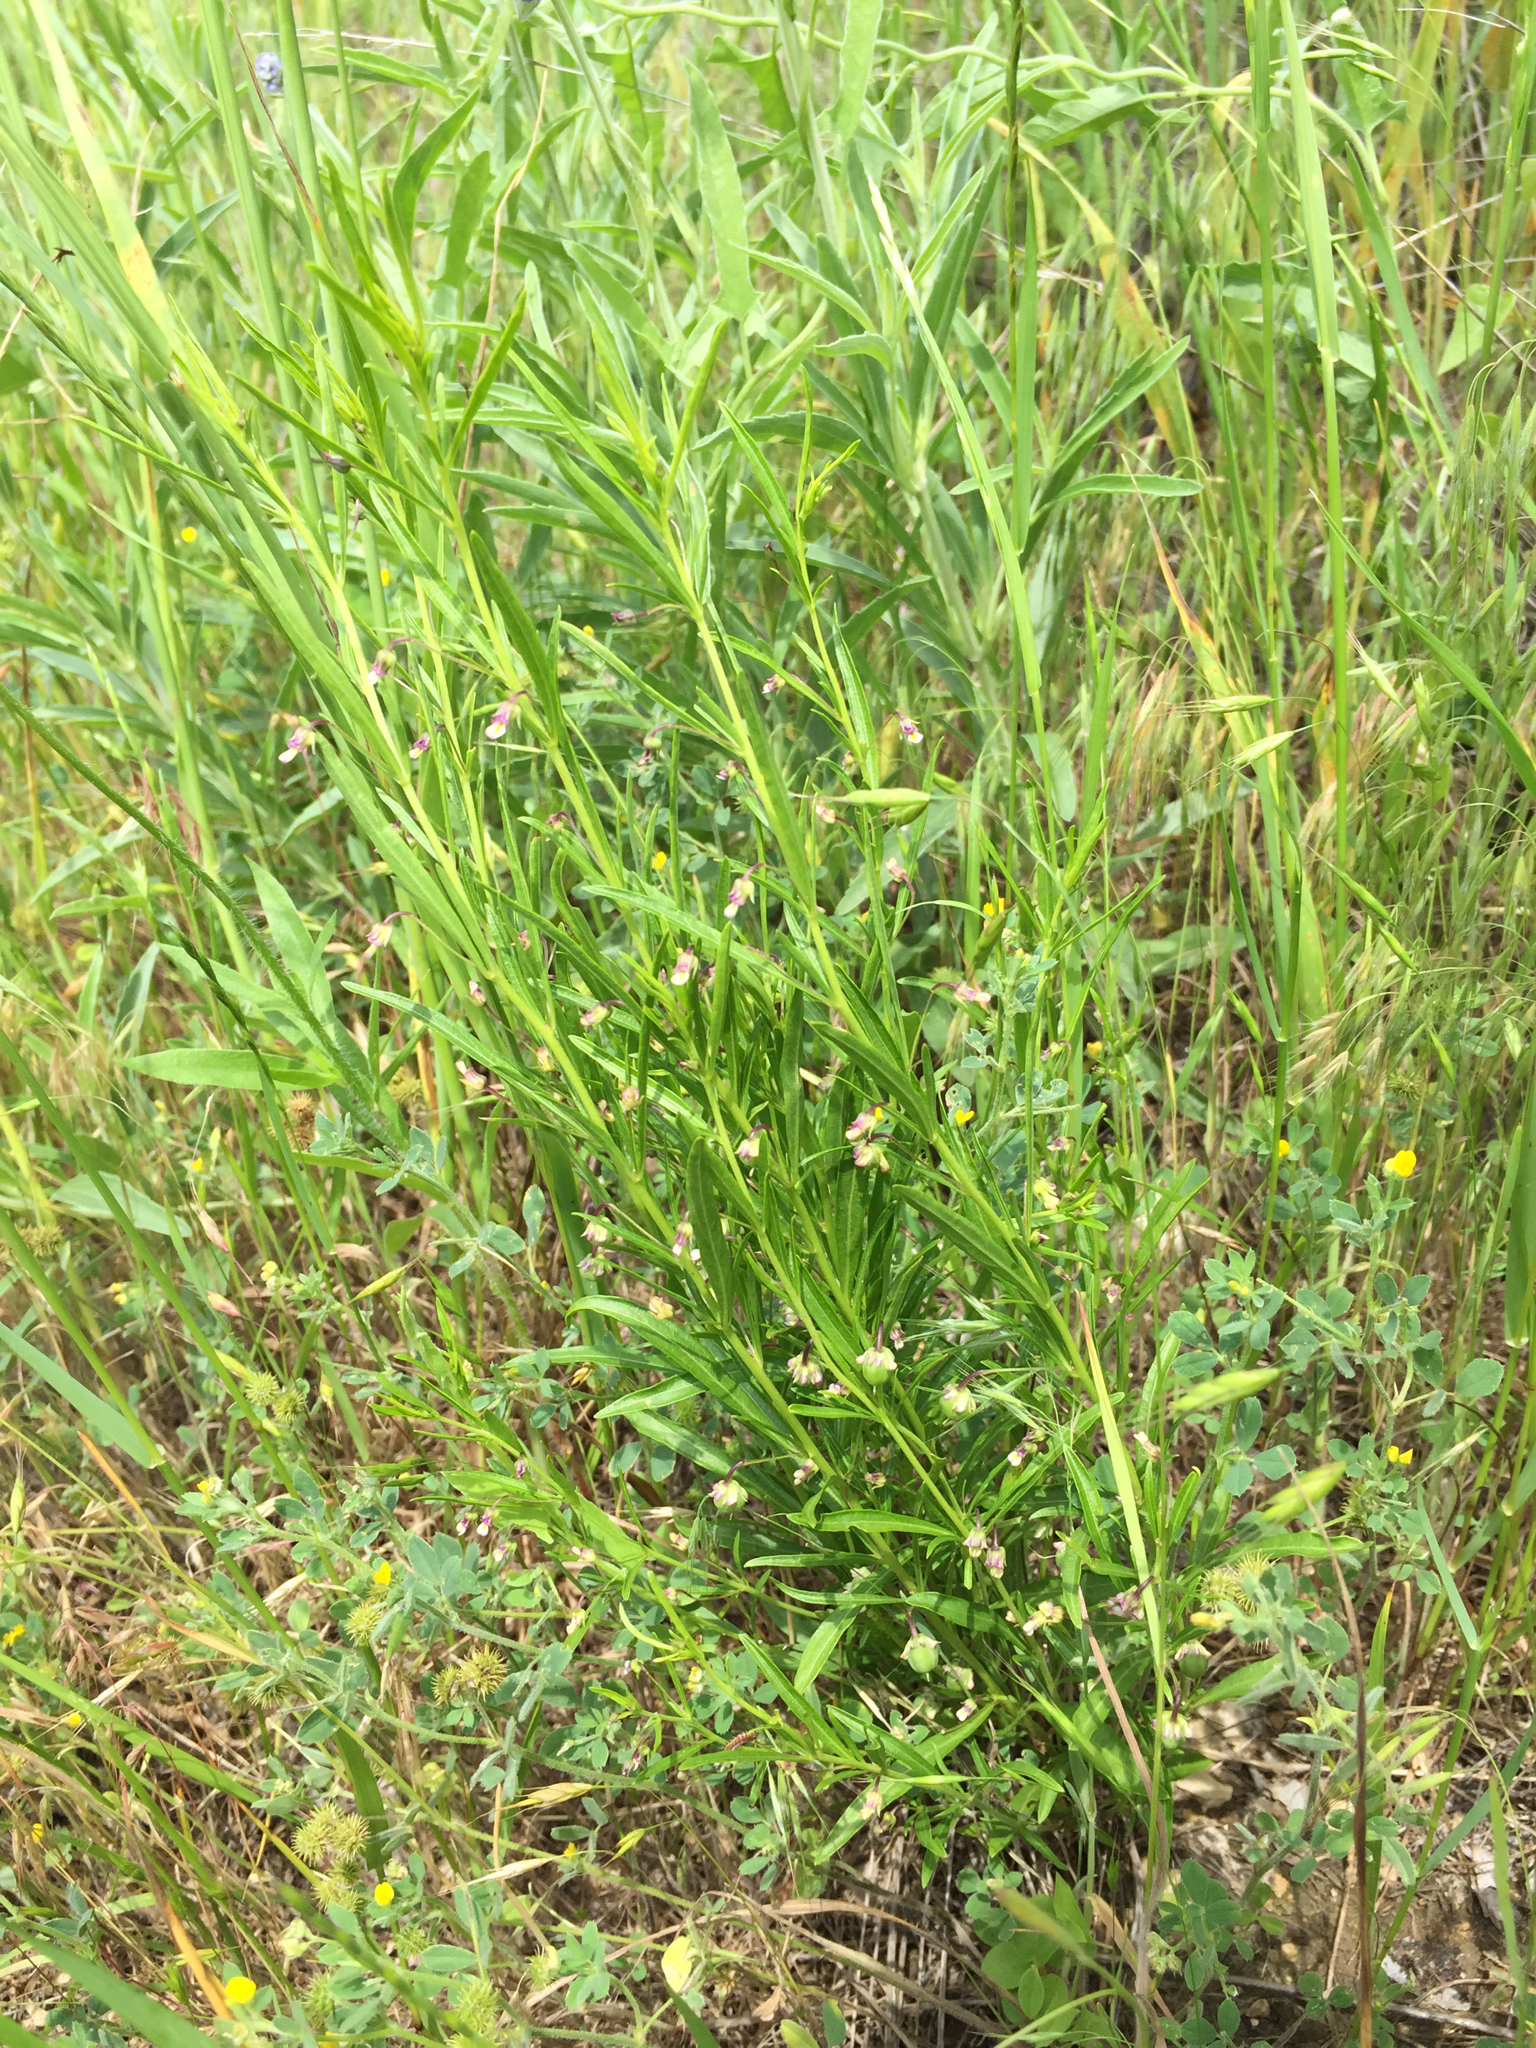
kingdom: Plantae
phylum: Tracheophyta
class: Magnoliopsida
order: Malpighiales
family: Violaceae
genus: Pombalia
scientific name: Pombalia verticillata
